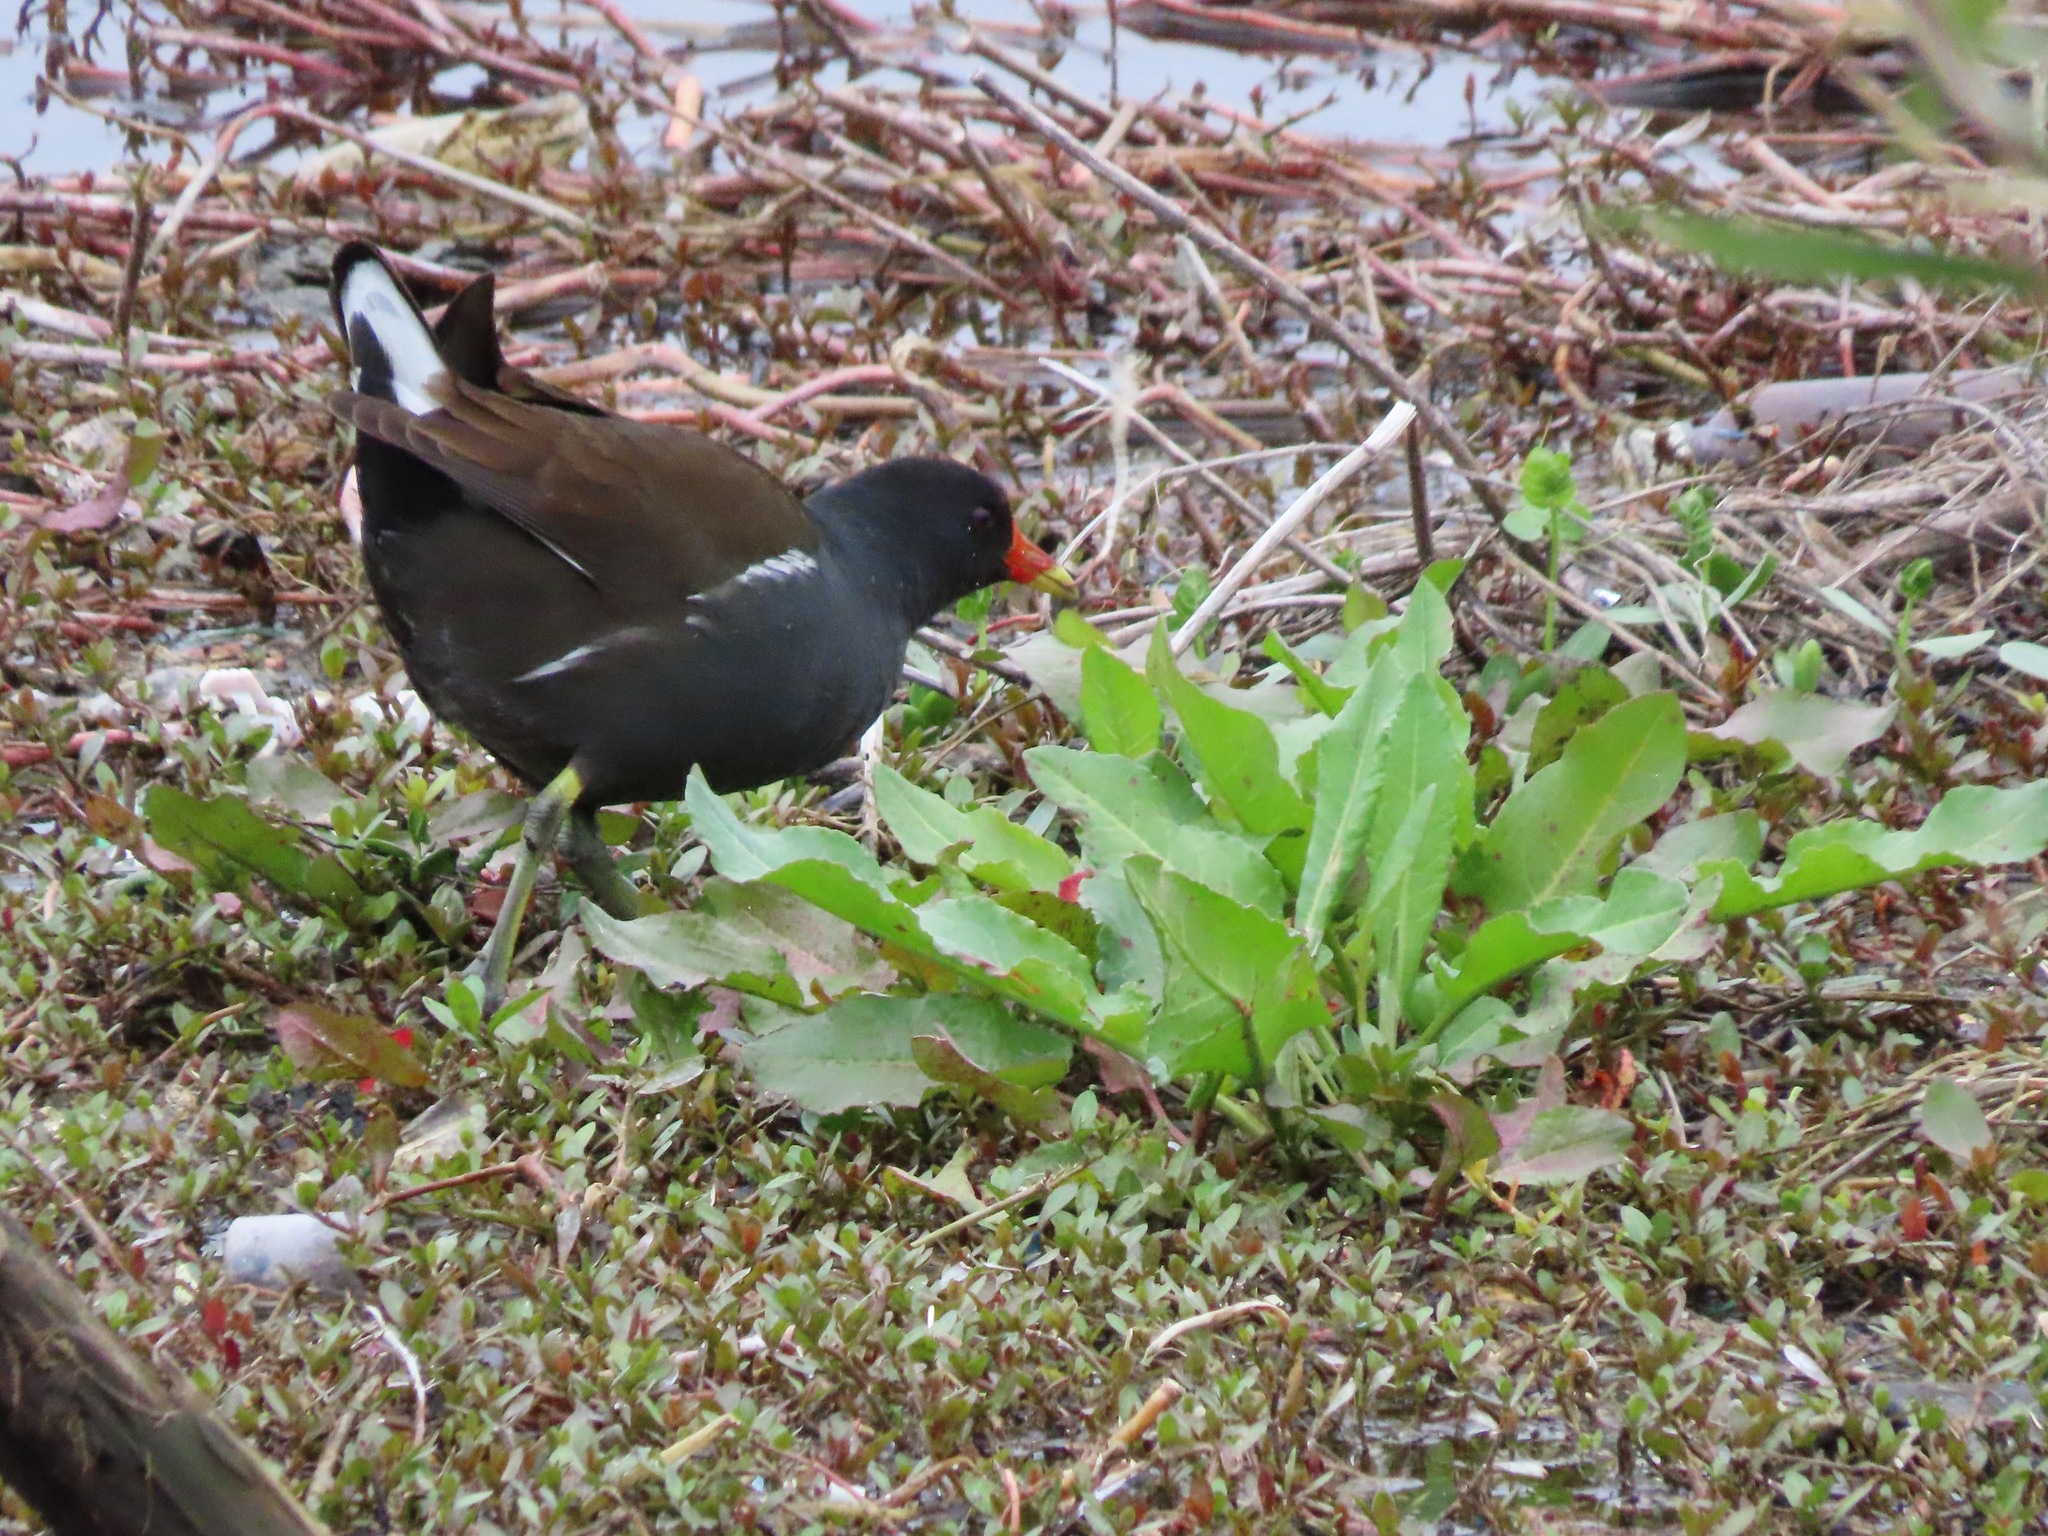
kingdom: Animalia
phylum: Chordata
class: Aves
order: Gruiformes
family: Rallidae
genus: Gallinula
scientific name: Gallinula chloropus
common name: Common moorhen
